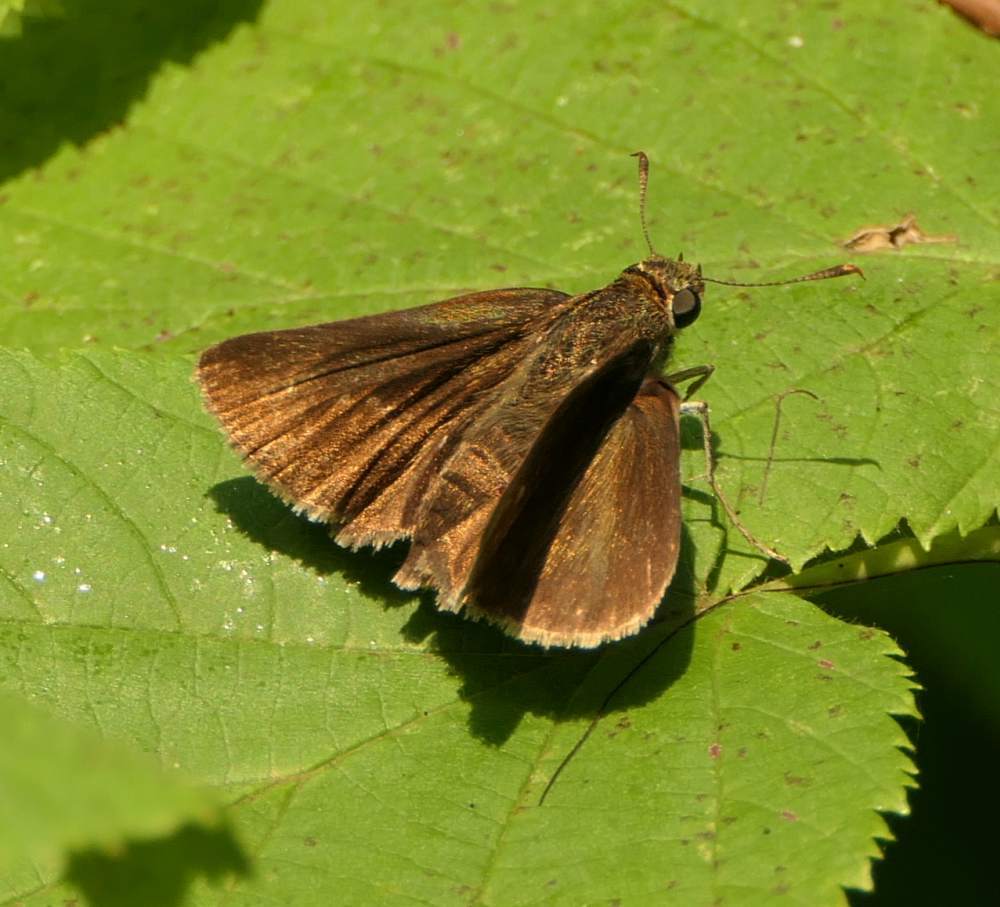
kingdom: Animalia
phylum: Arthropoda
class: Insecta
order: Lepidoptera
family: Hesperiidae
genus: Euphyes
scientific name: Euphyes vestris
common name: Dun skipper
